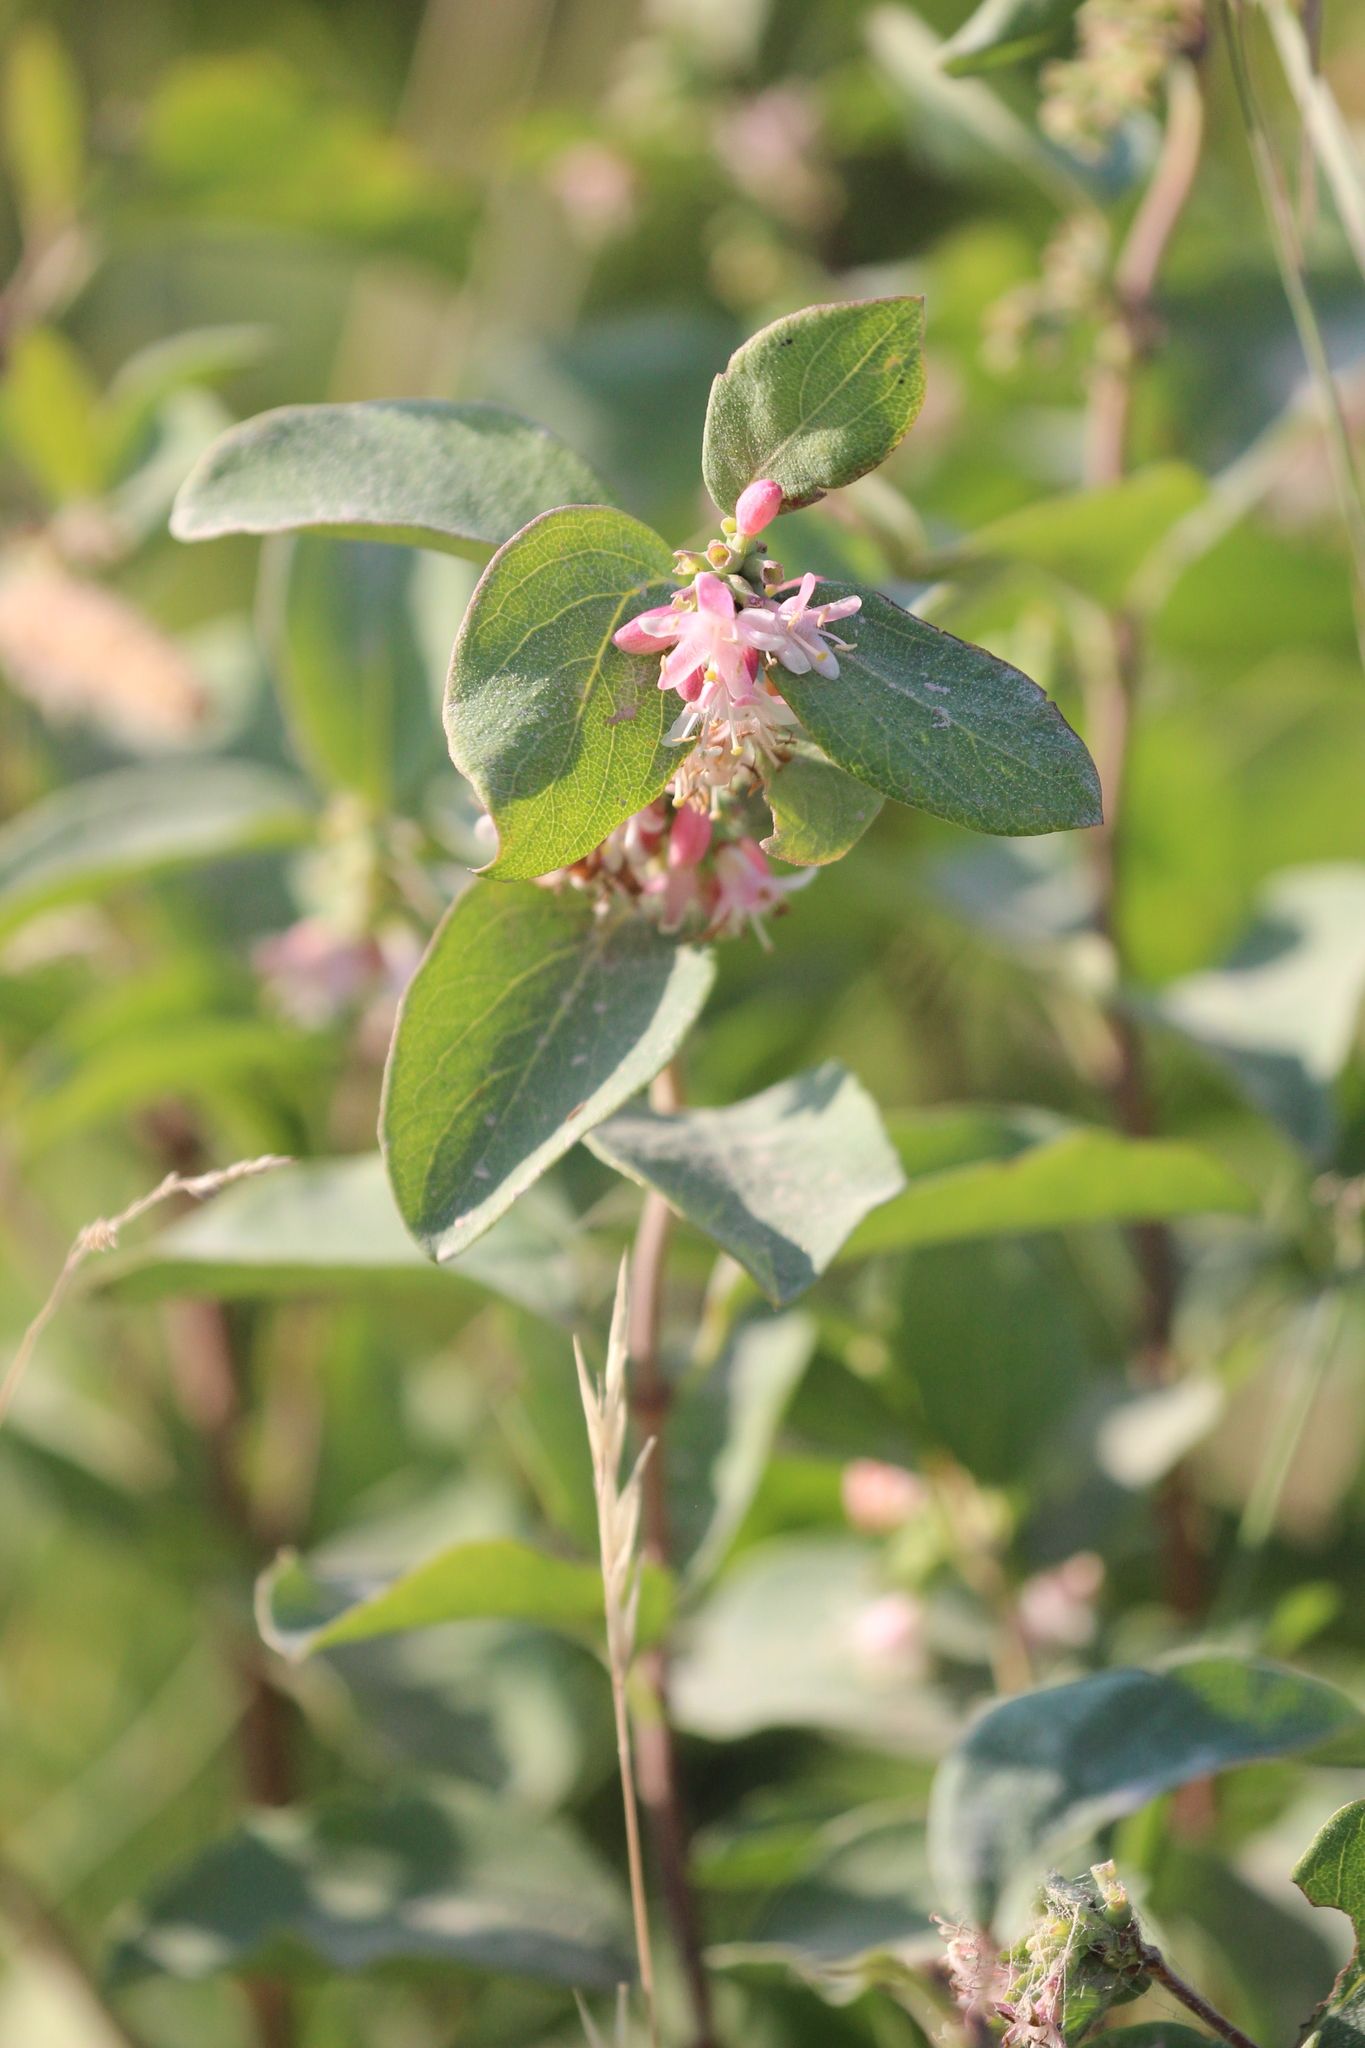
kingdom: Plantae
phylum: Tracheophyta
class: Magnoliopsida
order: Dipsacales
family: Caprifoliaceae
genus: Symphoricarpos
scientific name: Symphoricarpos occidentalis
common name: Wolfberry
